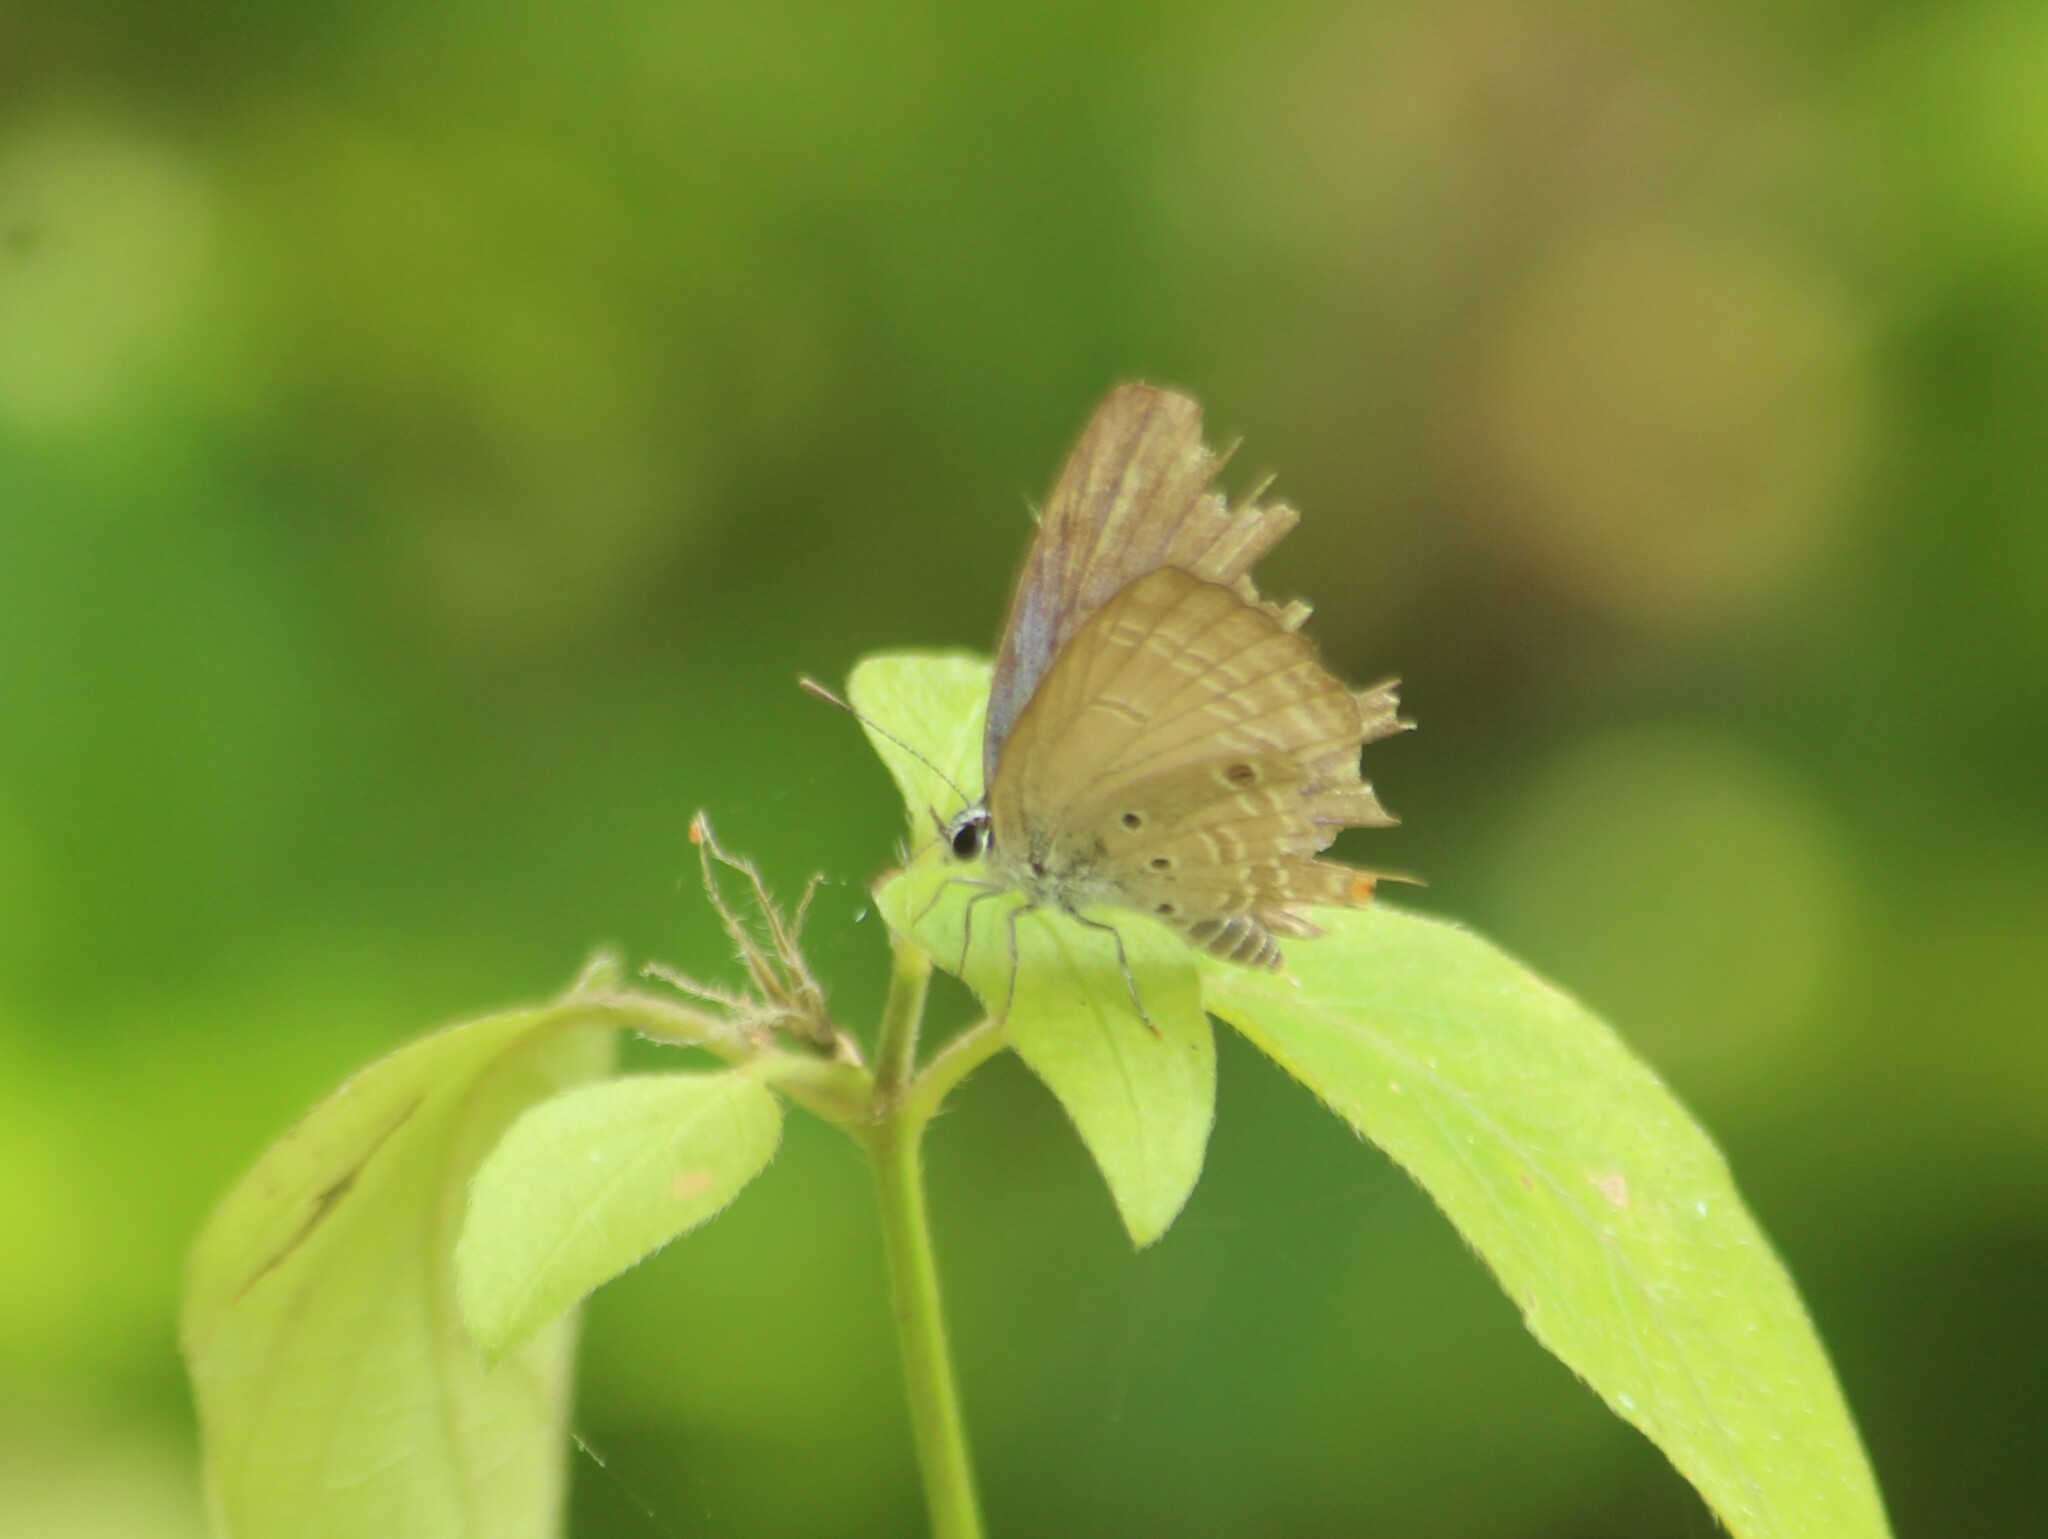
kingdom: Animalia
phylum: Arthropoda
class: Insecta
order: Lepidoptera
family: Lycaenidae
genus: Luthrodes
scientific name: Luthrodes pandava
